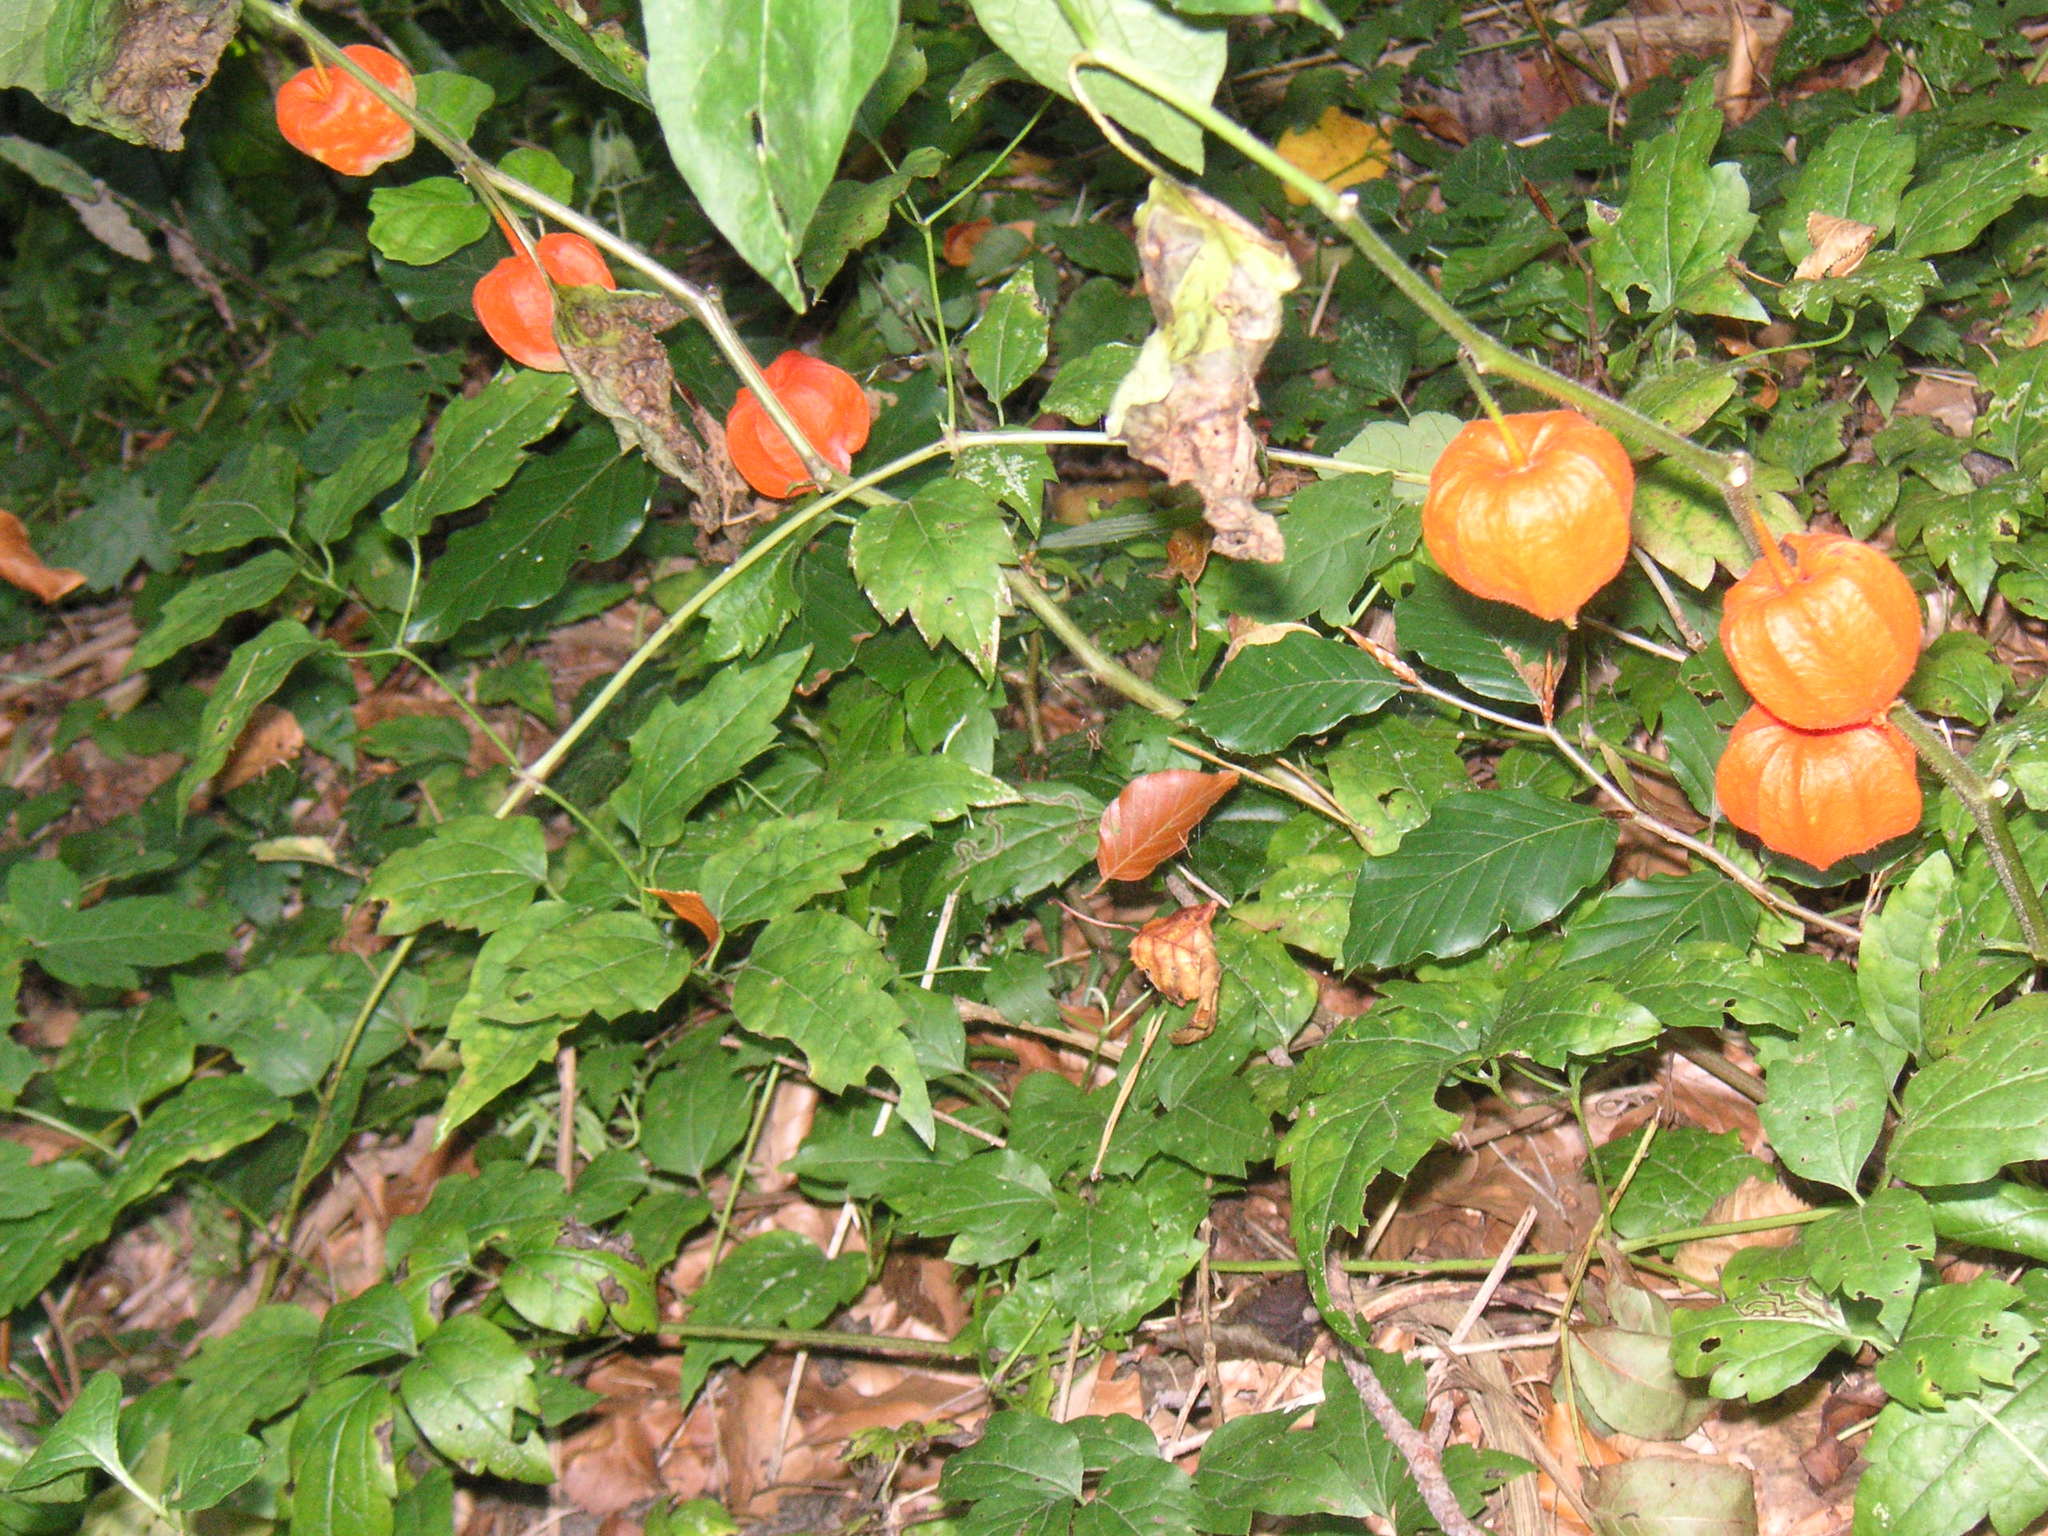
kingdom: Plantae
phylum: Tracheophyta
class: Magnoliopsida
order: Solanales
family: Solanaceae
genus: Alkekengi
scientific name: Alkekengi officinarum
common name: Japanese-lantern
